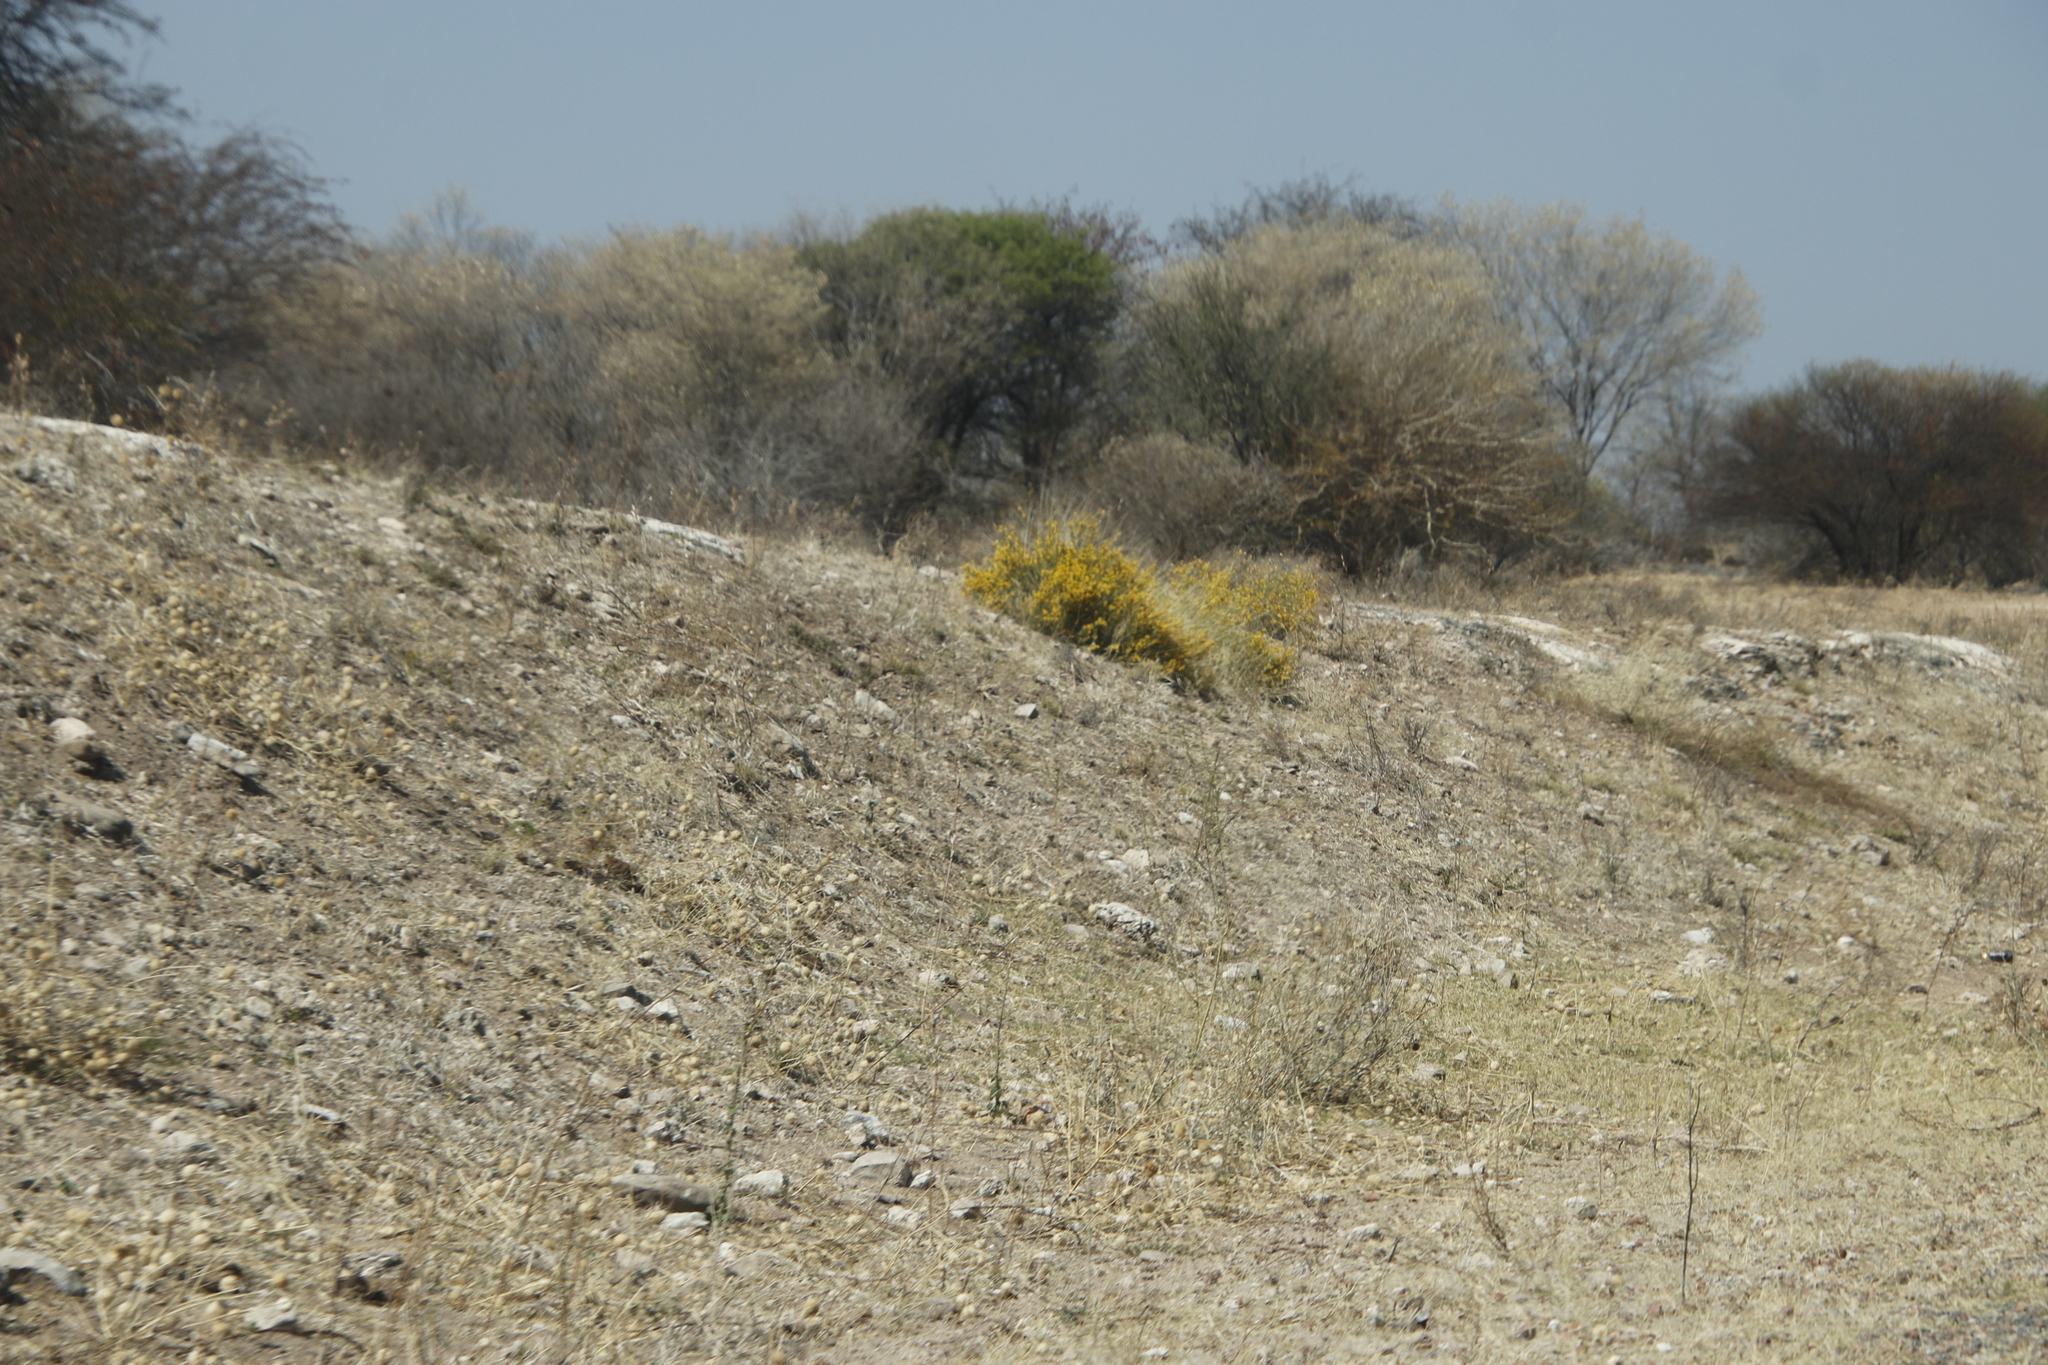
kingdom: Plantae
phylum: Tracheophyta
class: Magnoliopsida
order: Malvales
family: Thymelaeaceae
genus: Gnidia
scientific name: Gnidia polycephala
